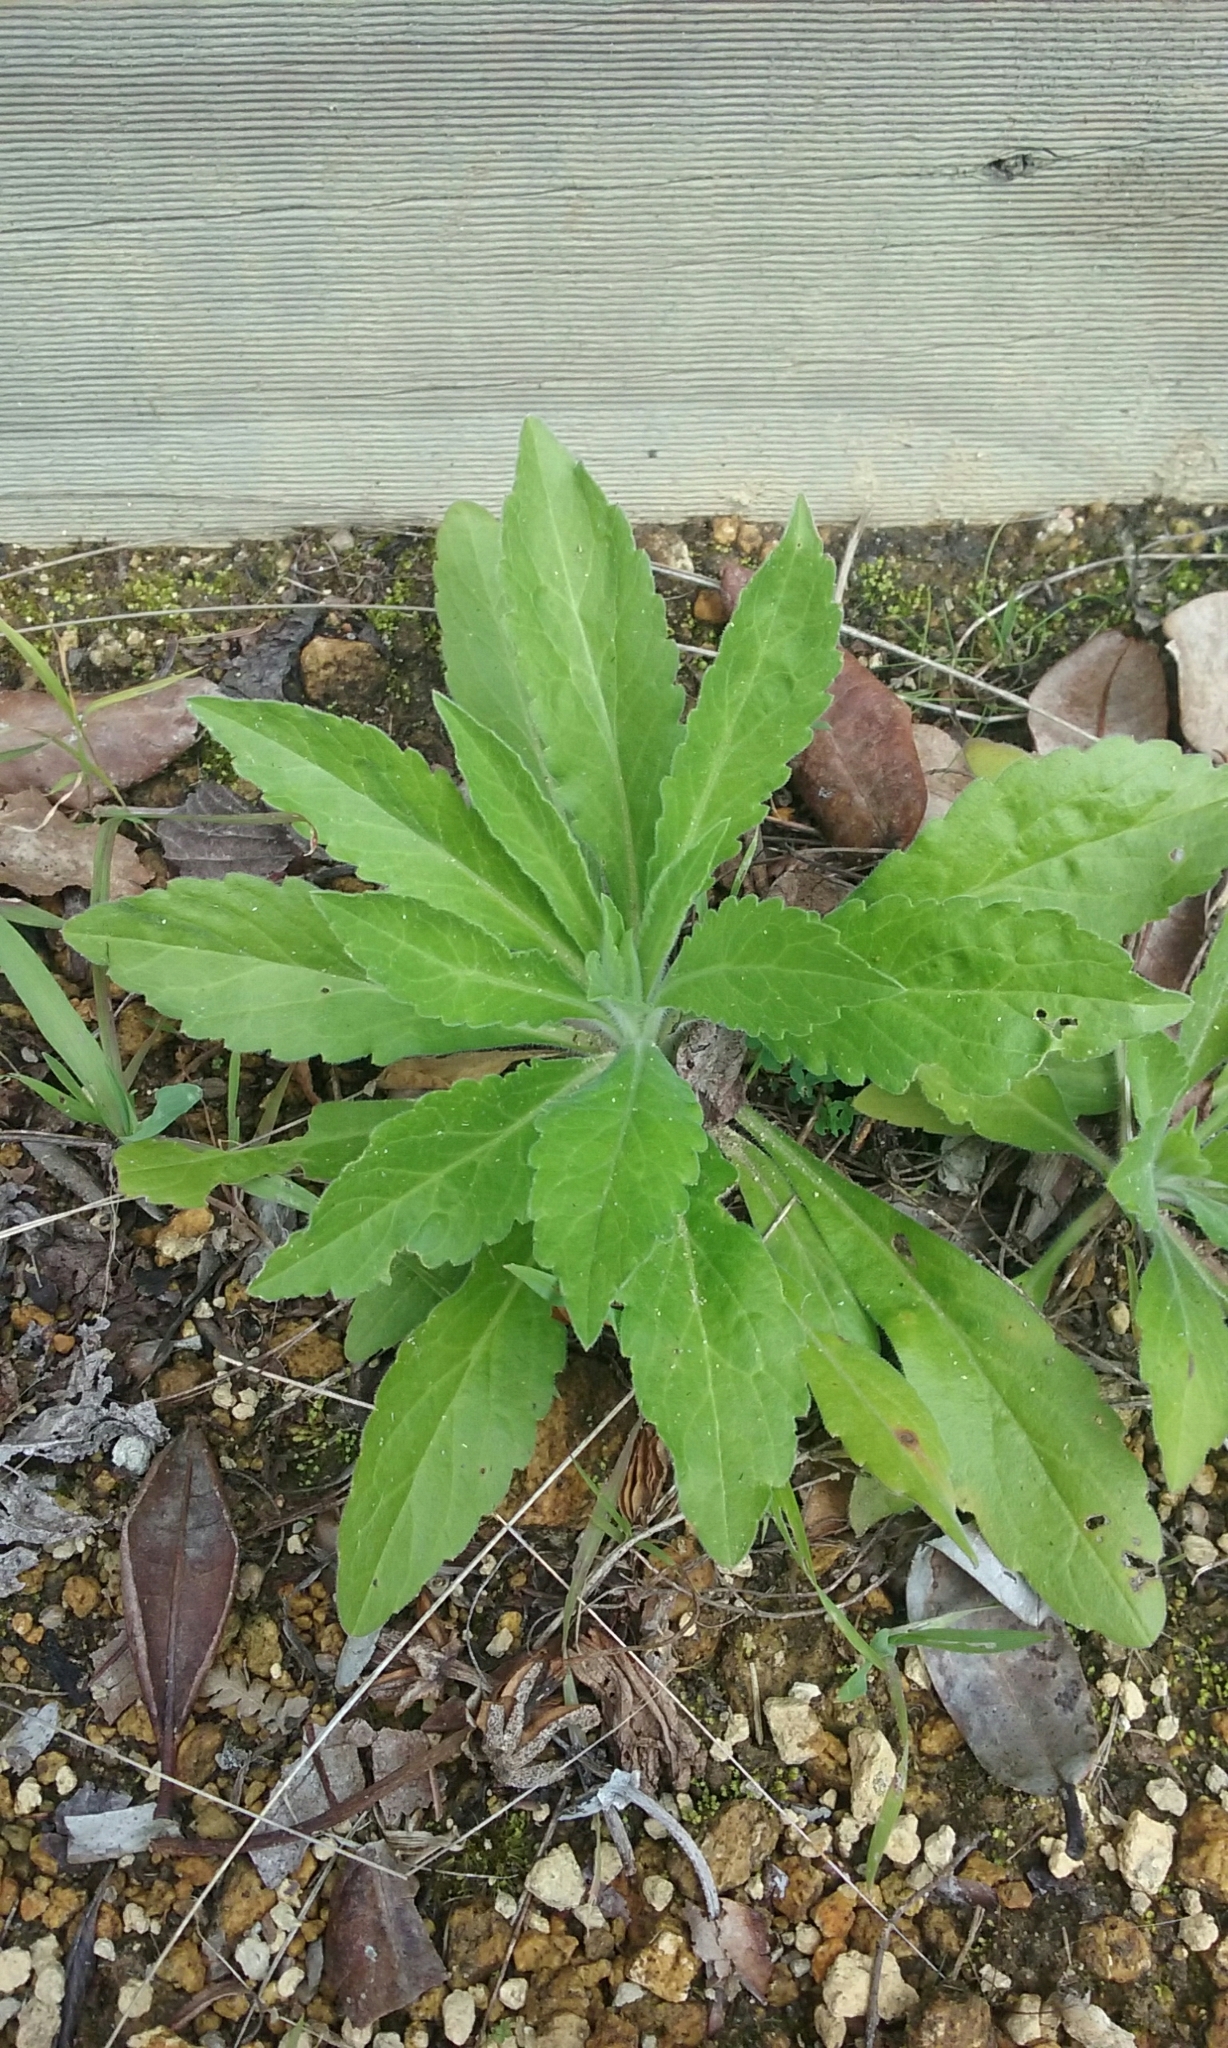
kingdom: Plantae
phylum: Tracheophyta
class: Magnoliopsida
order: Asterales
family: Asteraceae
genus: Erigeron
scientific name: Erigeron canadensis
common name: Canadian fleabane
